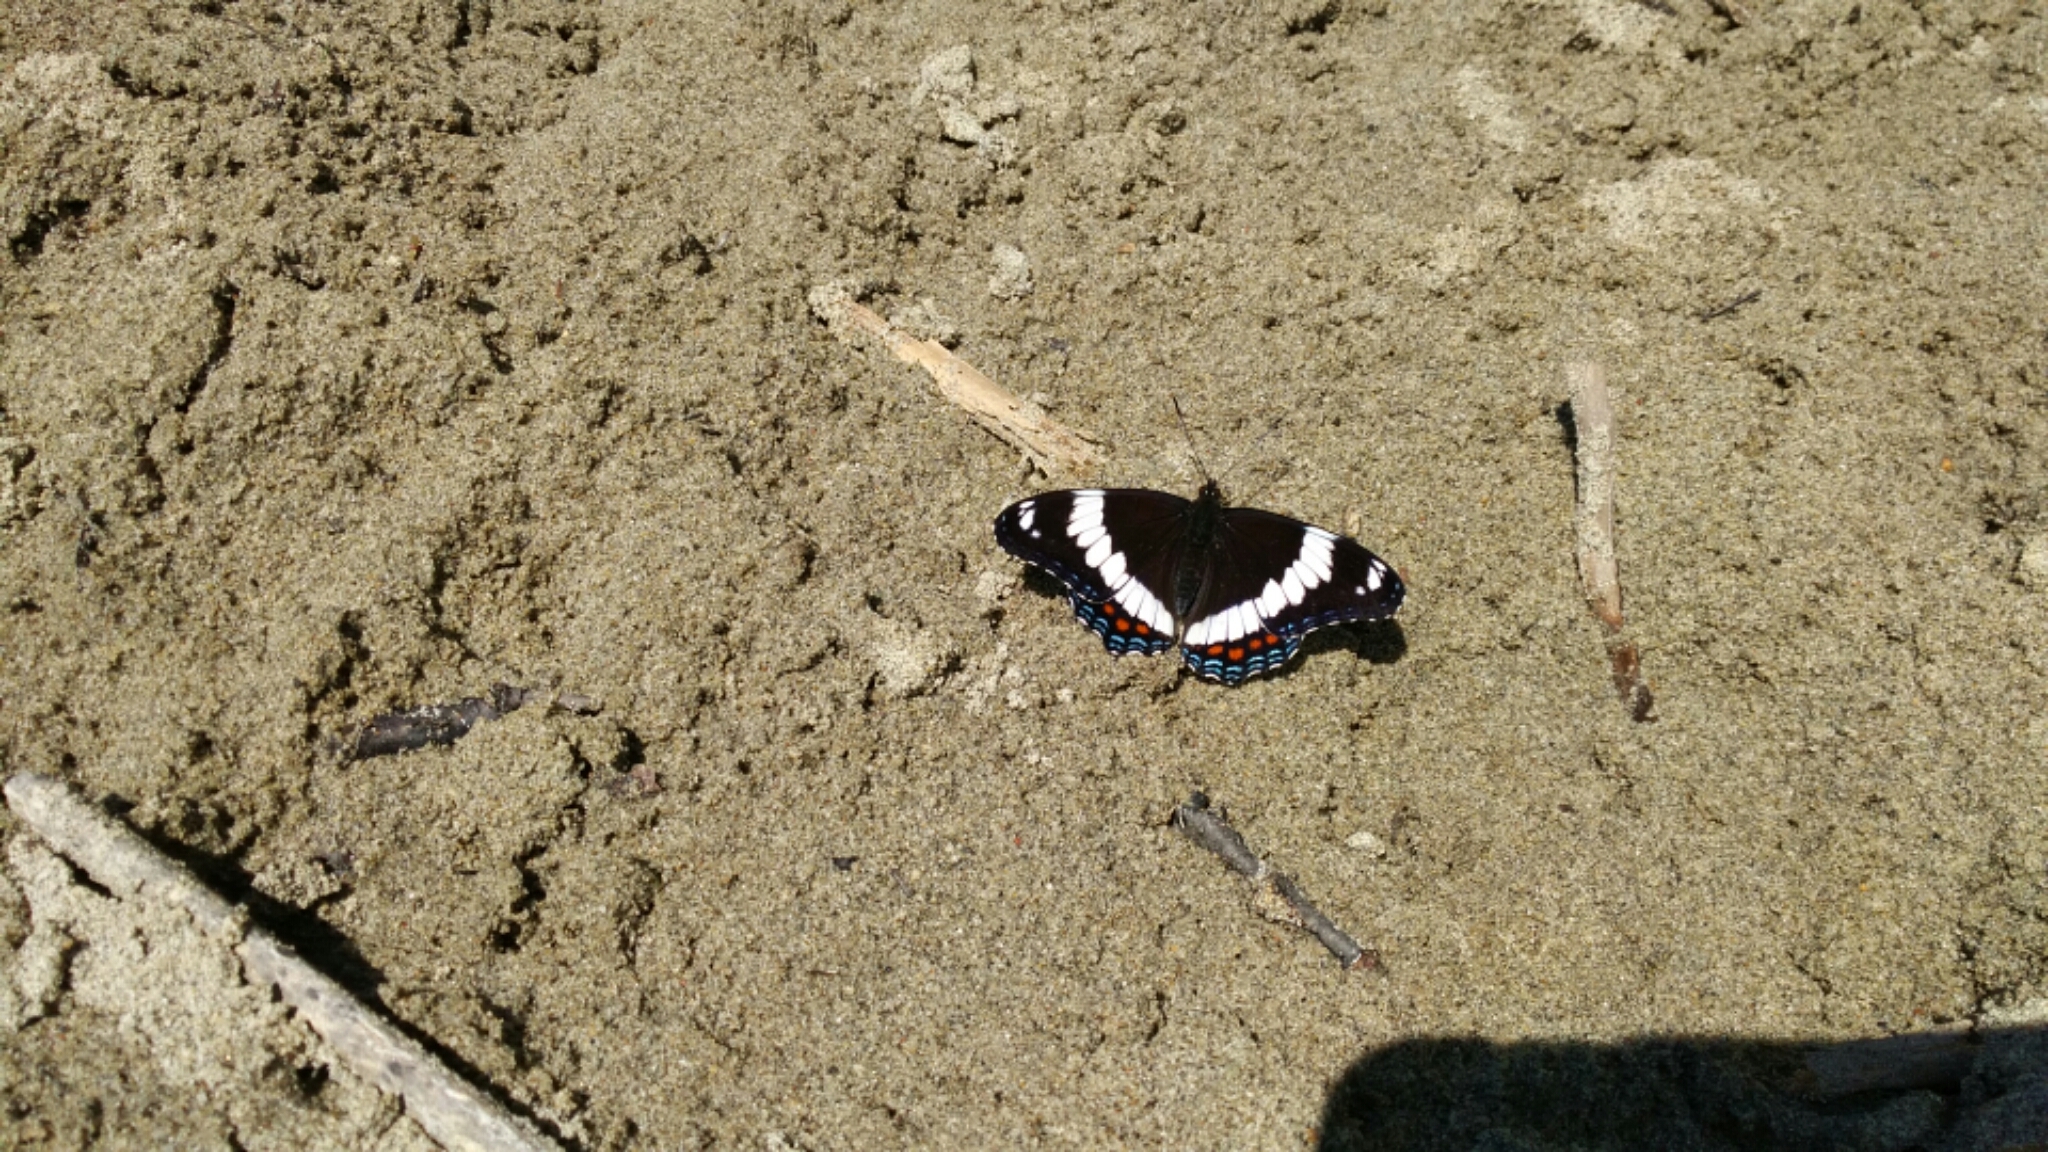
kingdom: Animalia
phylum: Arthropoda
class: Insecta
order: Lepidoptera
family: Nymphalidae
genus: Limenitis
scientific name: Limenitis arthemis
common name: Red-spotted admiral
